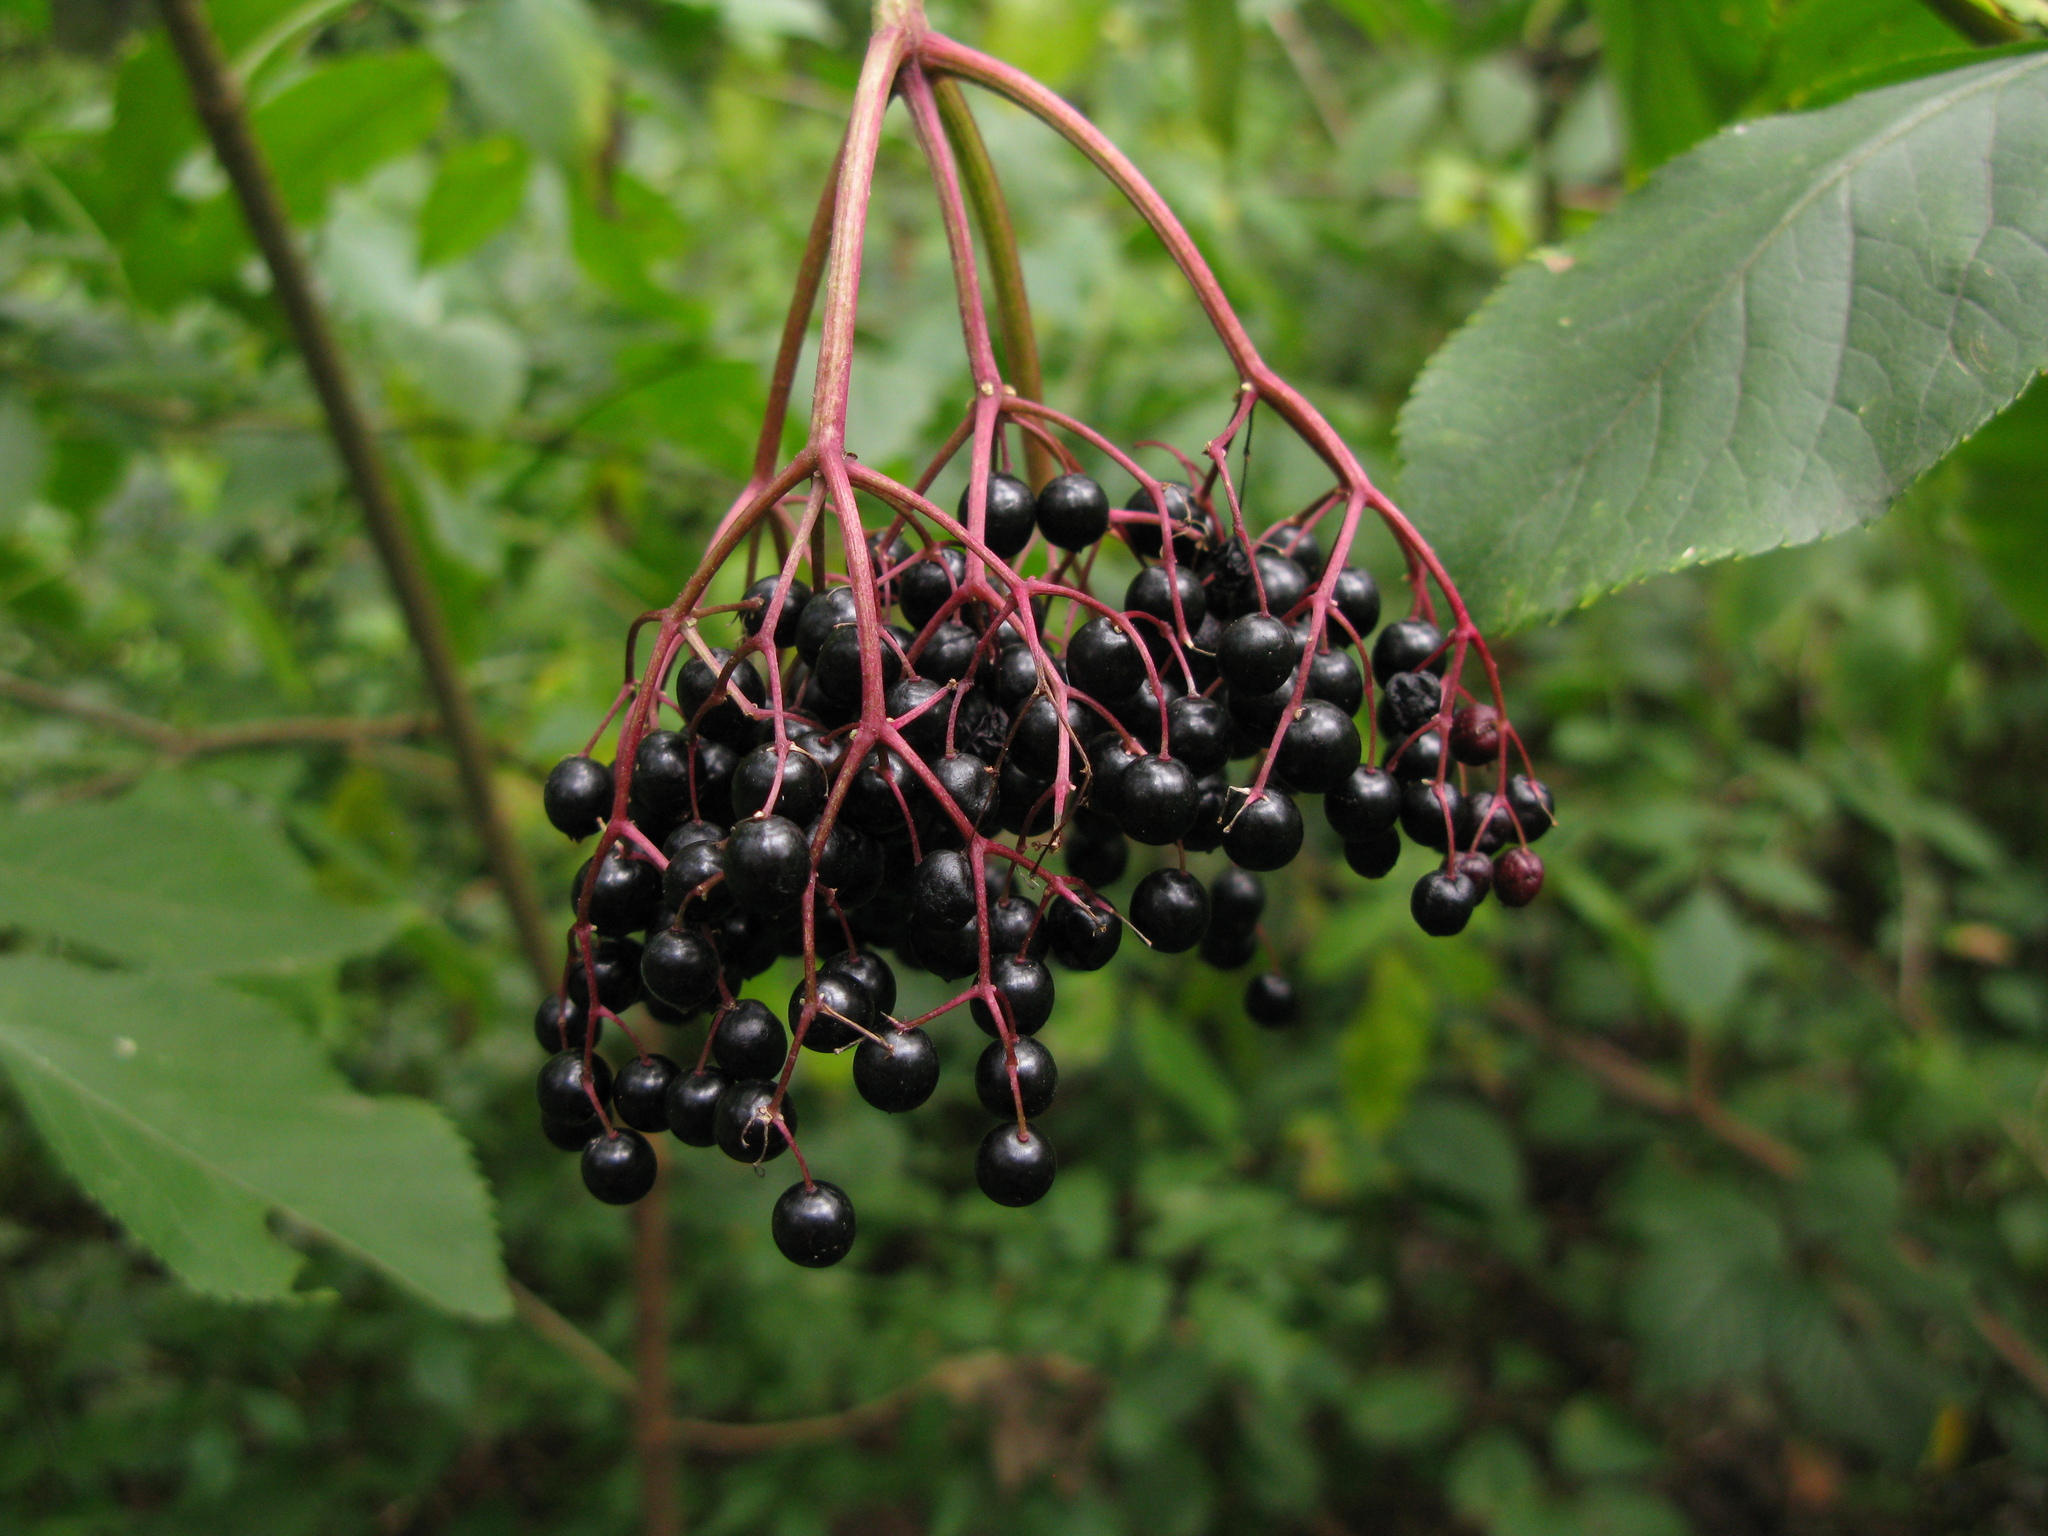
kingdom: Plantae
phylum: Tracheophyta
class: Magnoliopsida
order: Dipsacales
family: Viburnaceae
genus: Sambucus
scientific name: Sambucus nigra
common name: Elder
